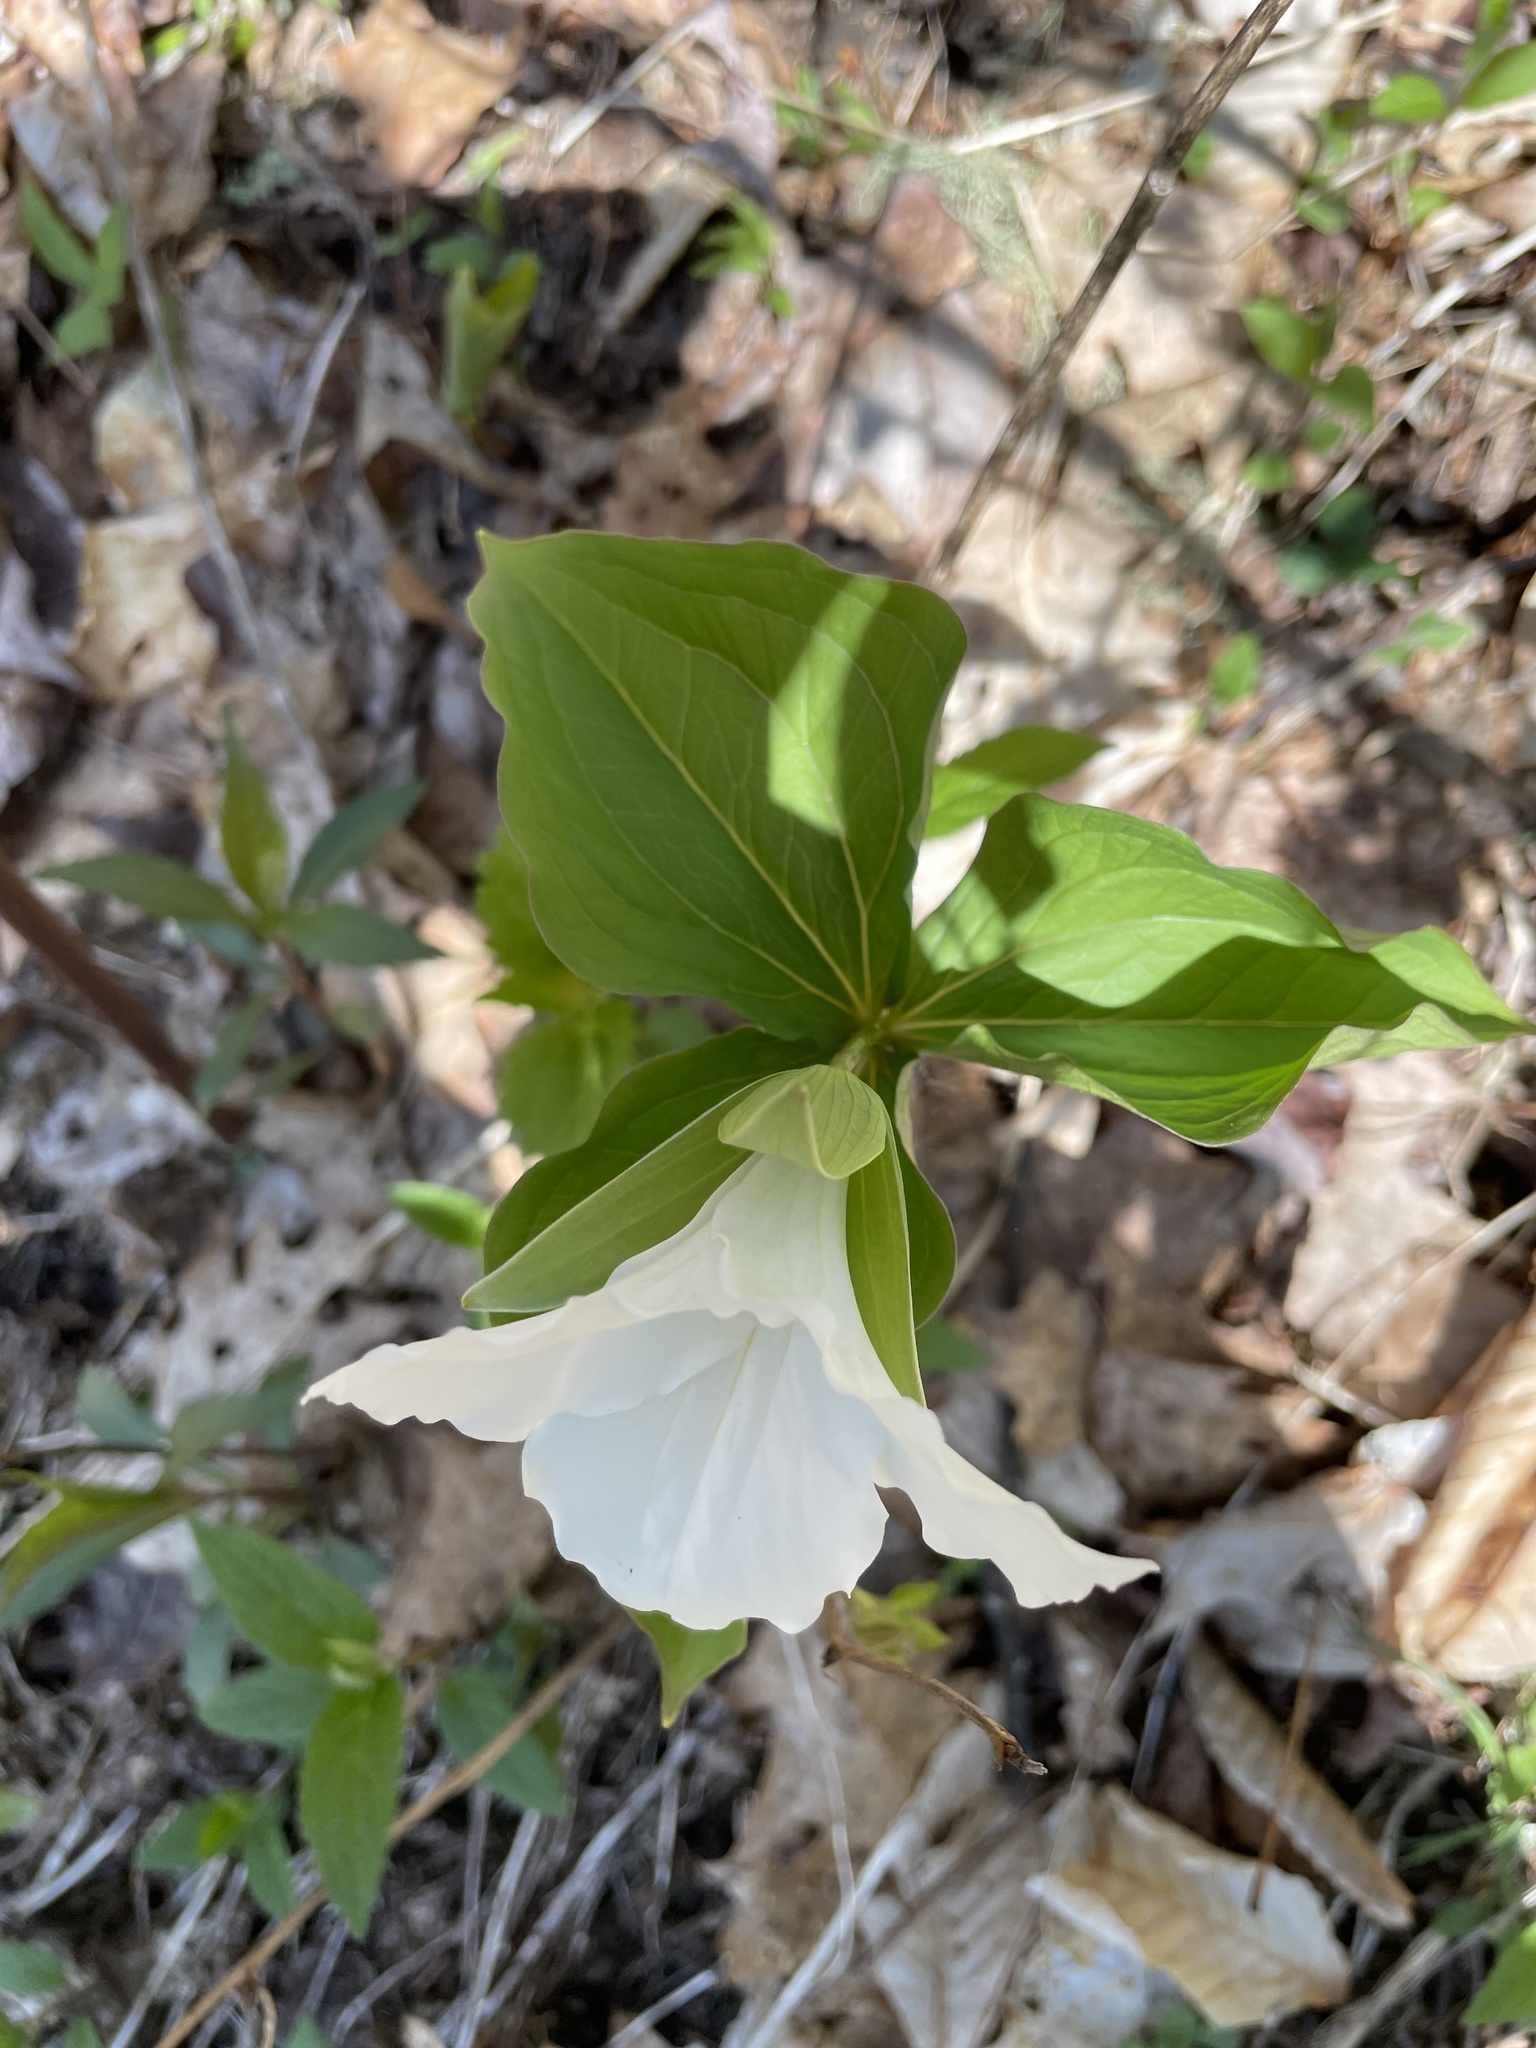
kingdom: Plantae
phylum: Tracheophyta
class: Liliopsida
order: Liliales
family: Melanthiaceae
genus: Trillium
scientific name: Trillium grandiflorum
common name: Great white trillium
